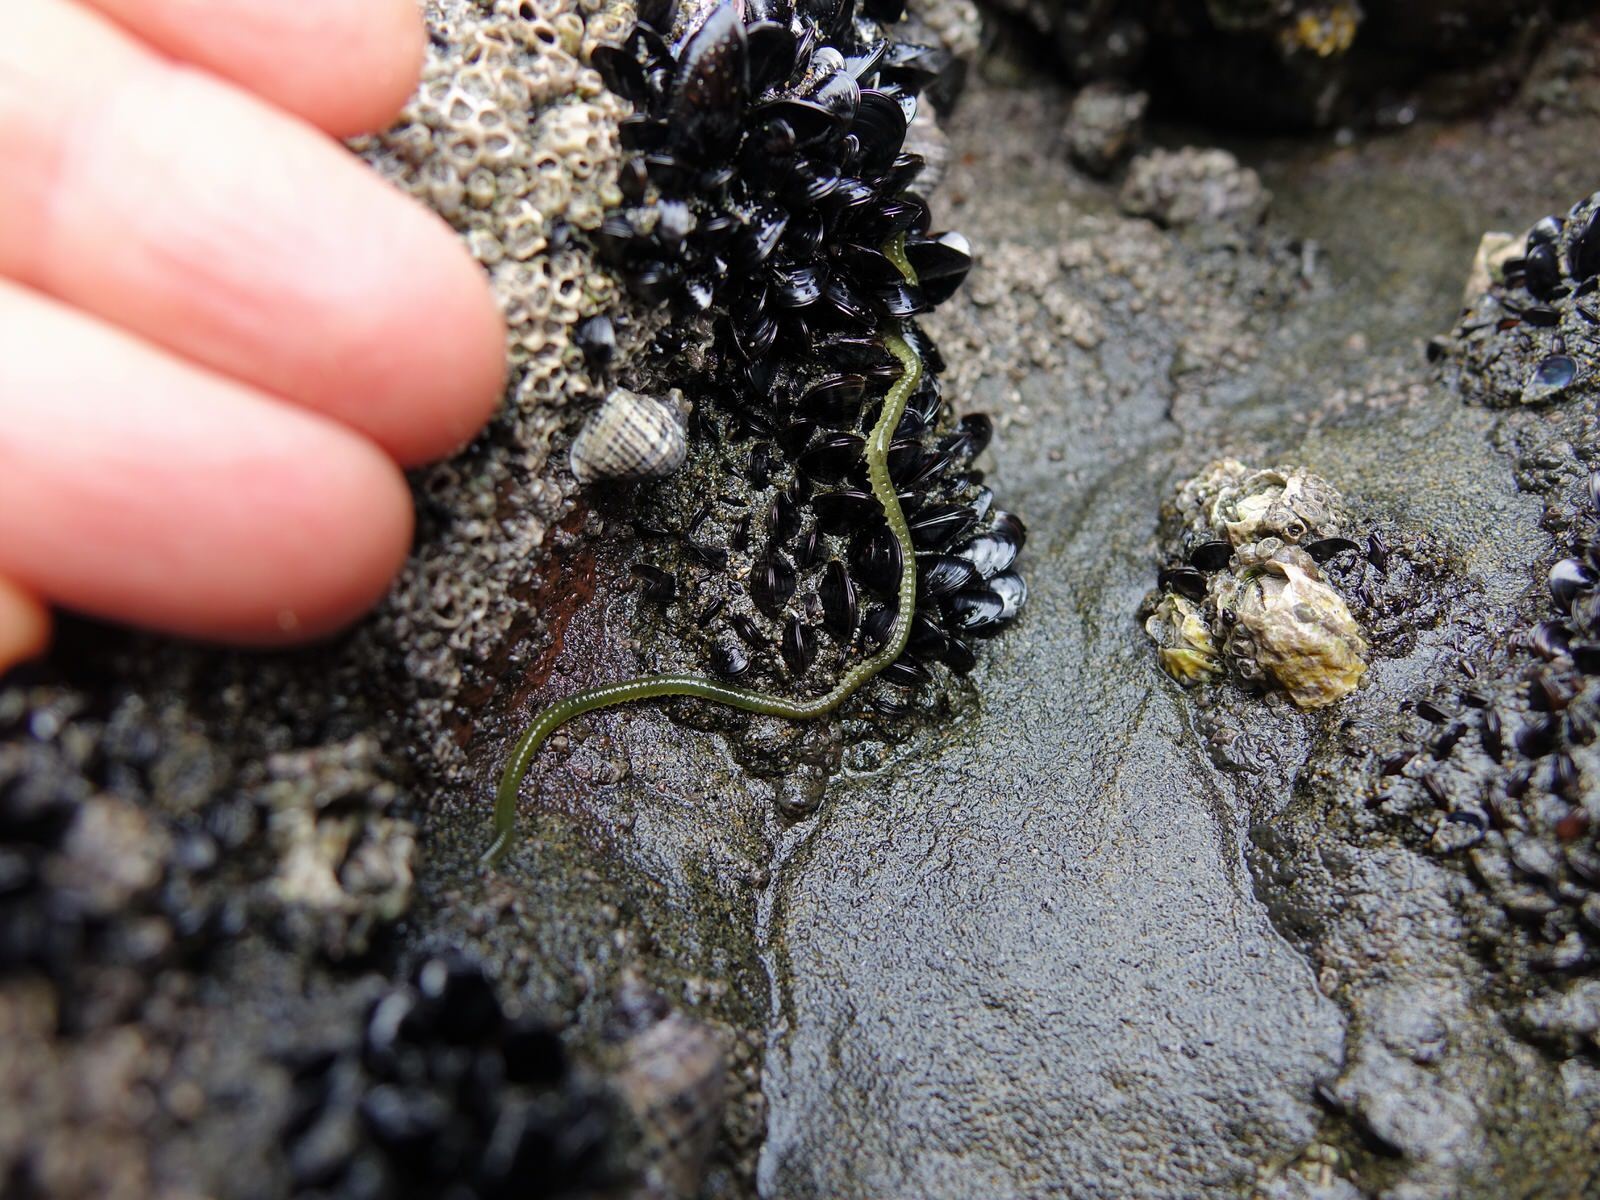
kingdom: Animalia
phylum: Annelida
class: Polychaeta
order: Phyllodocida
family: Phyllodocidae
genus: Eulalia
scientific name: Eulalia microphylla
